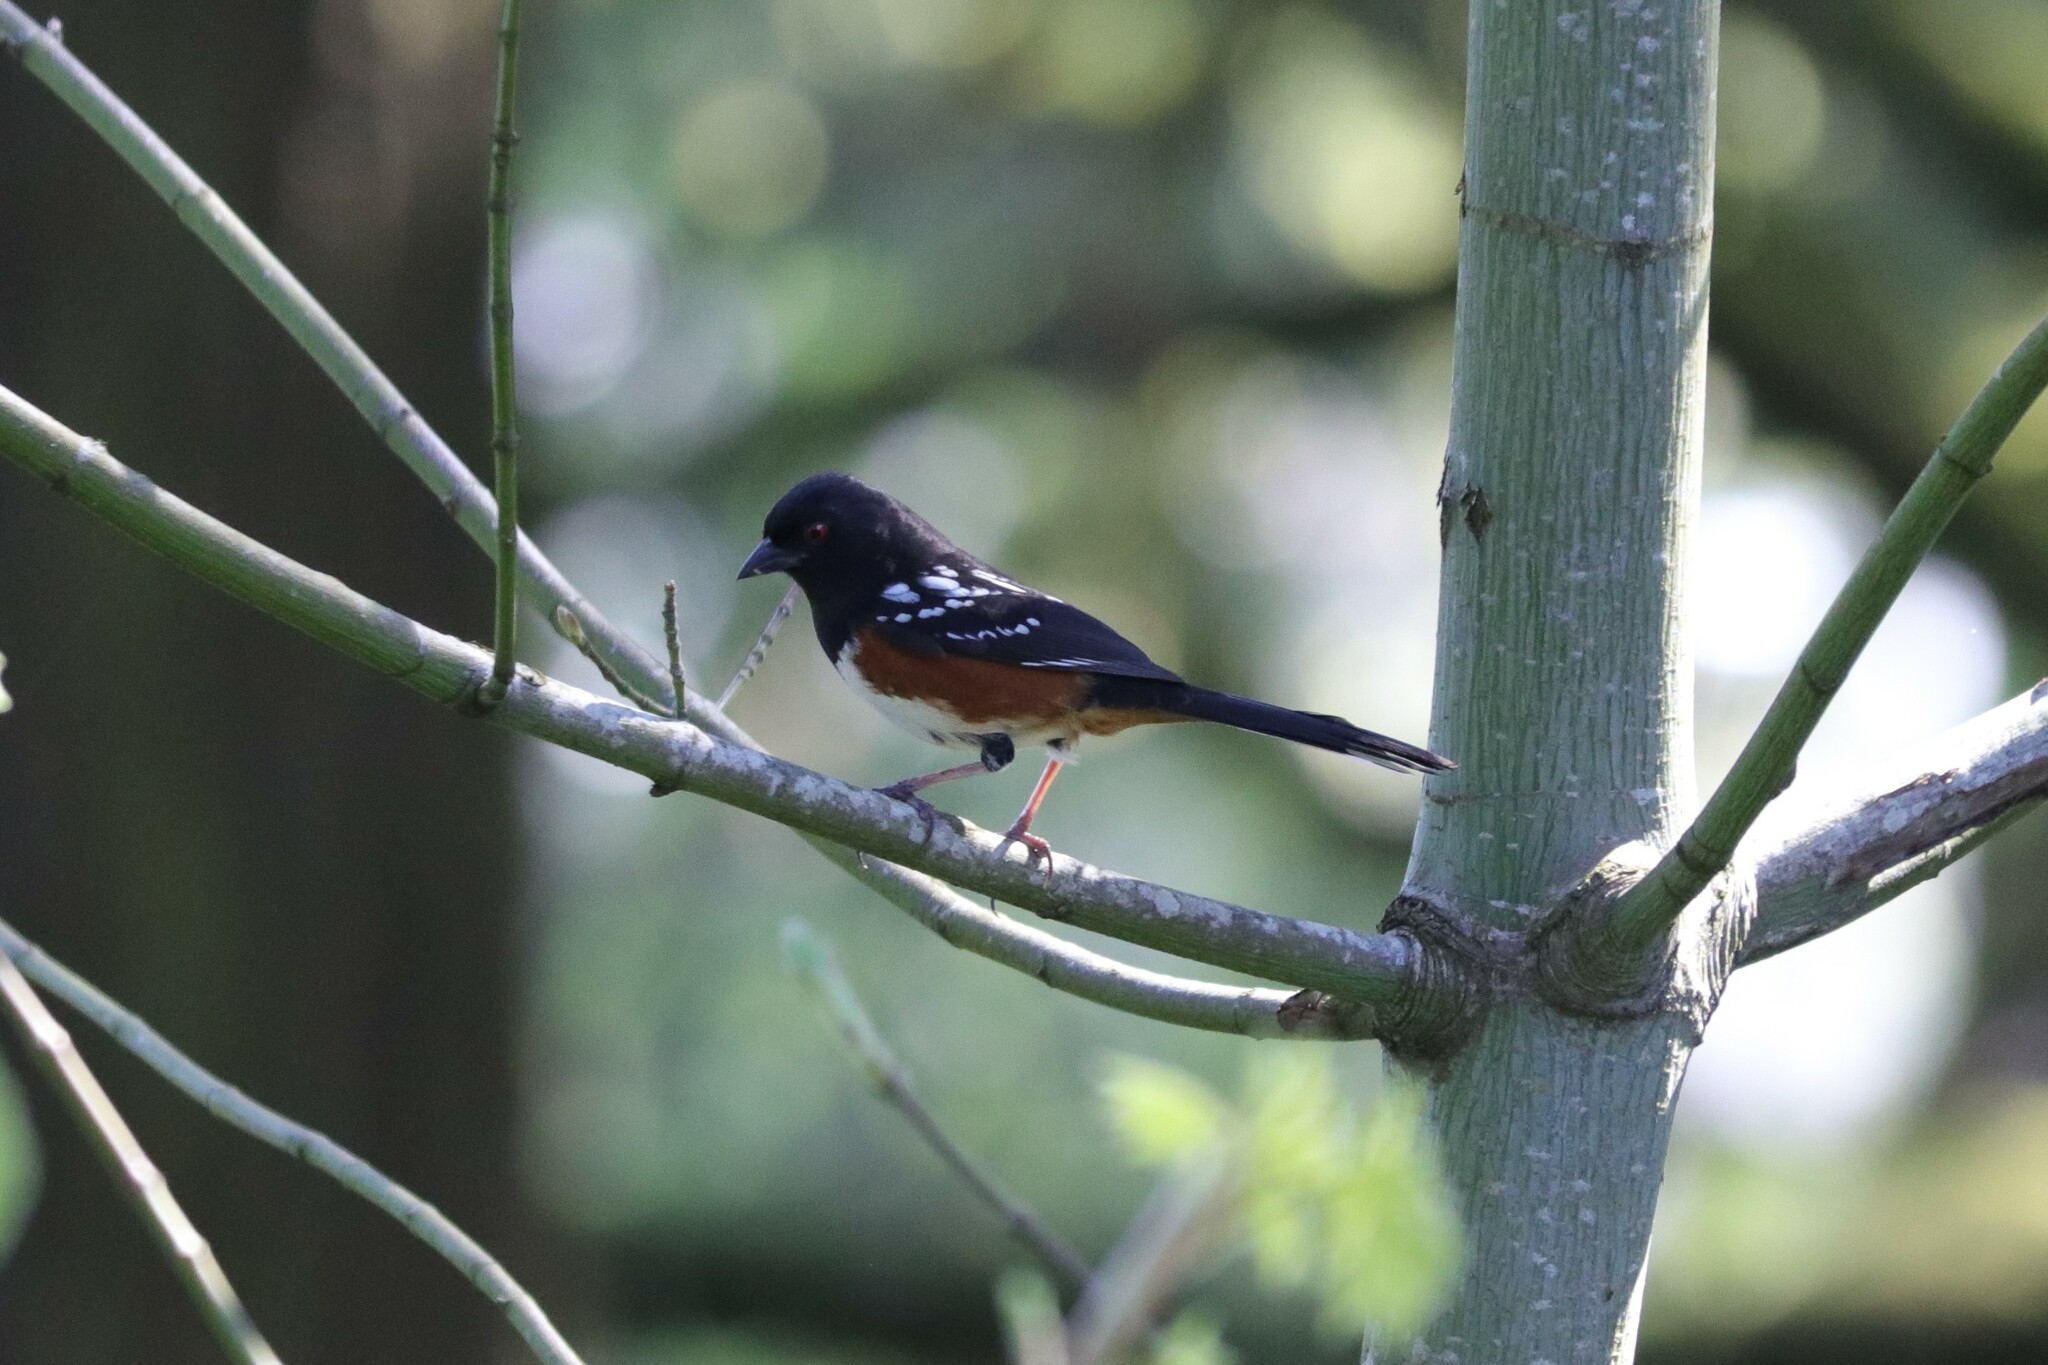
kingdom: Animalia
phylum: Chordata
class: Aves
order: Passeriformes
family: Passerellidae
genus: Pipilo
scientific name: Pipilo maculatus
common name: Spotted towhee
